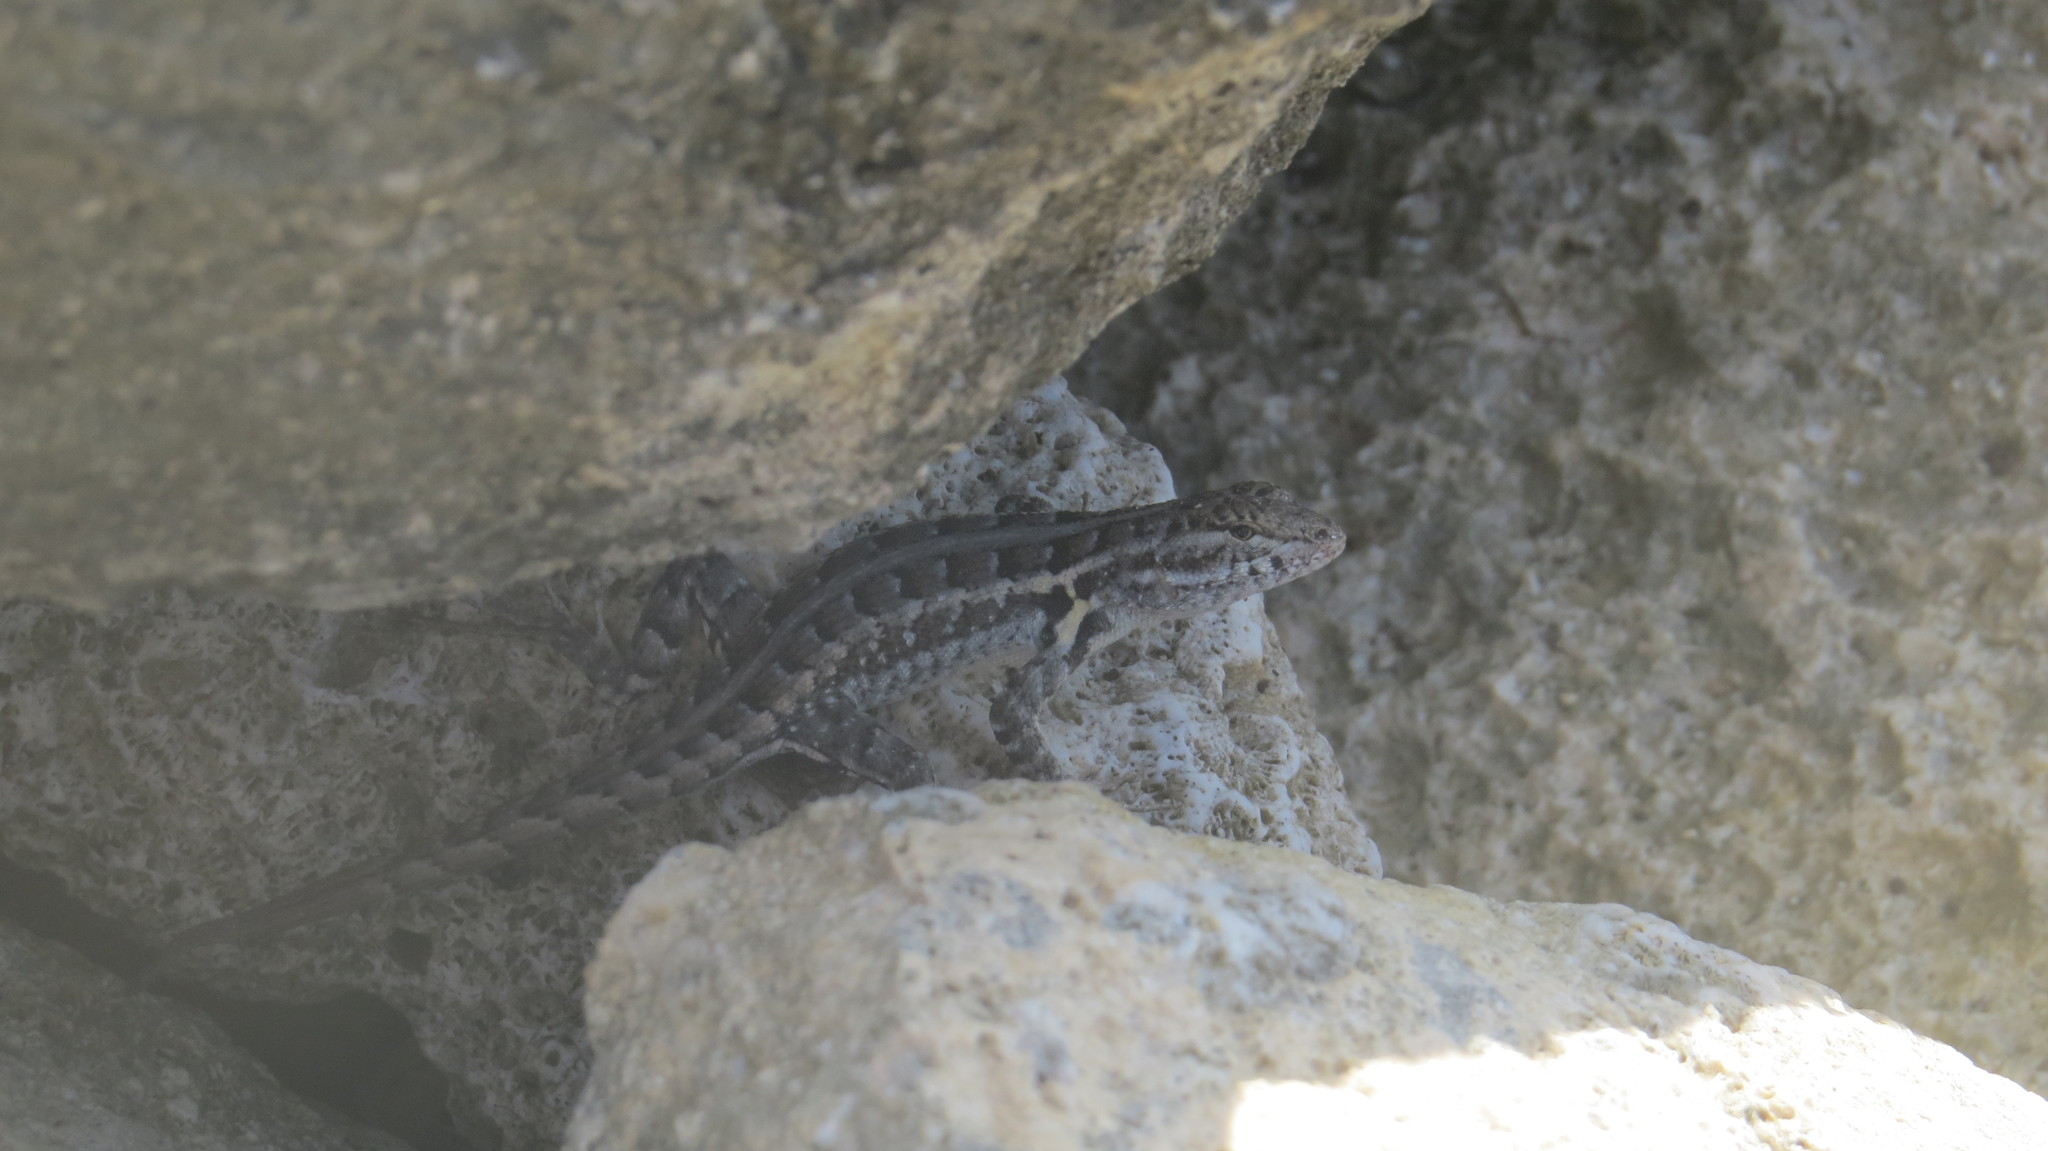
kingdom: Animalia
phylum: Chordata
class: Squamata
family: Phrynosomatidae
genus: Sceloporus
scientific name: Sceloporus cozumelae
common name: Cozumel spiny lizard
